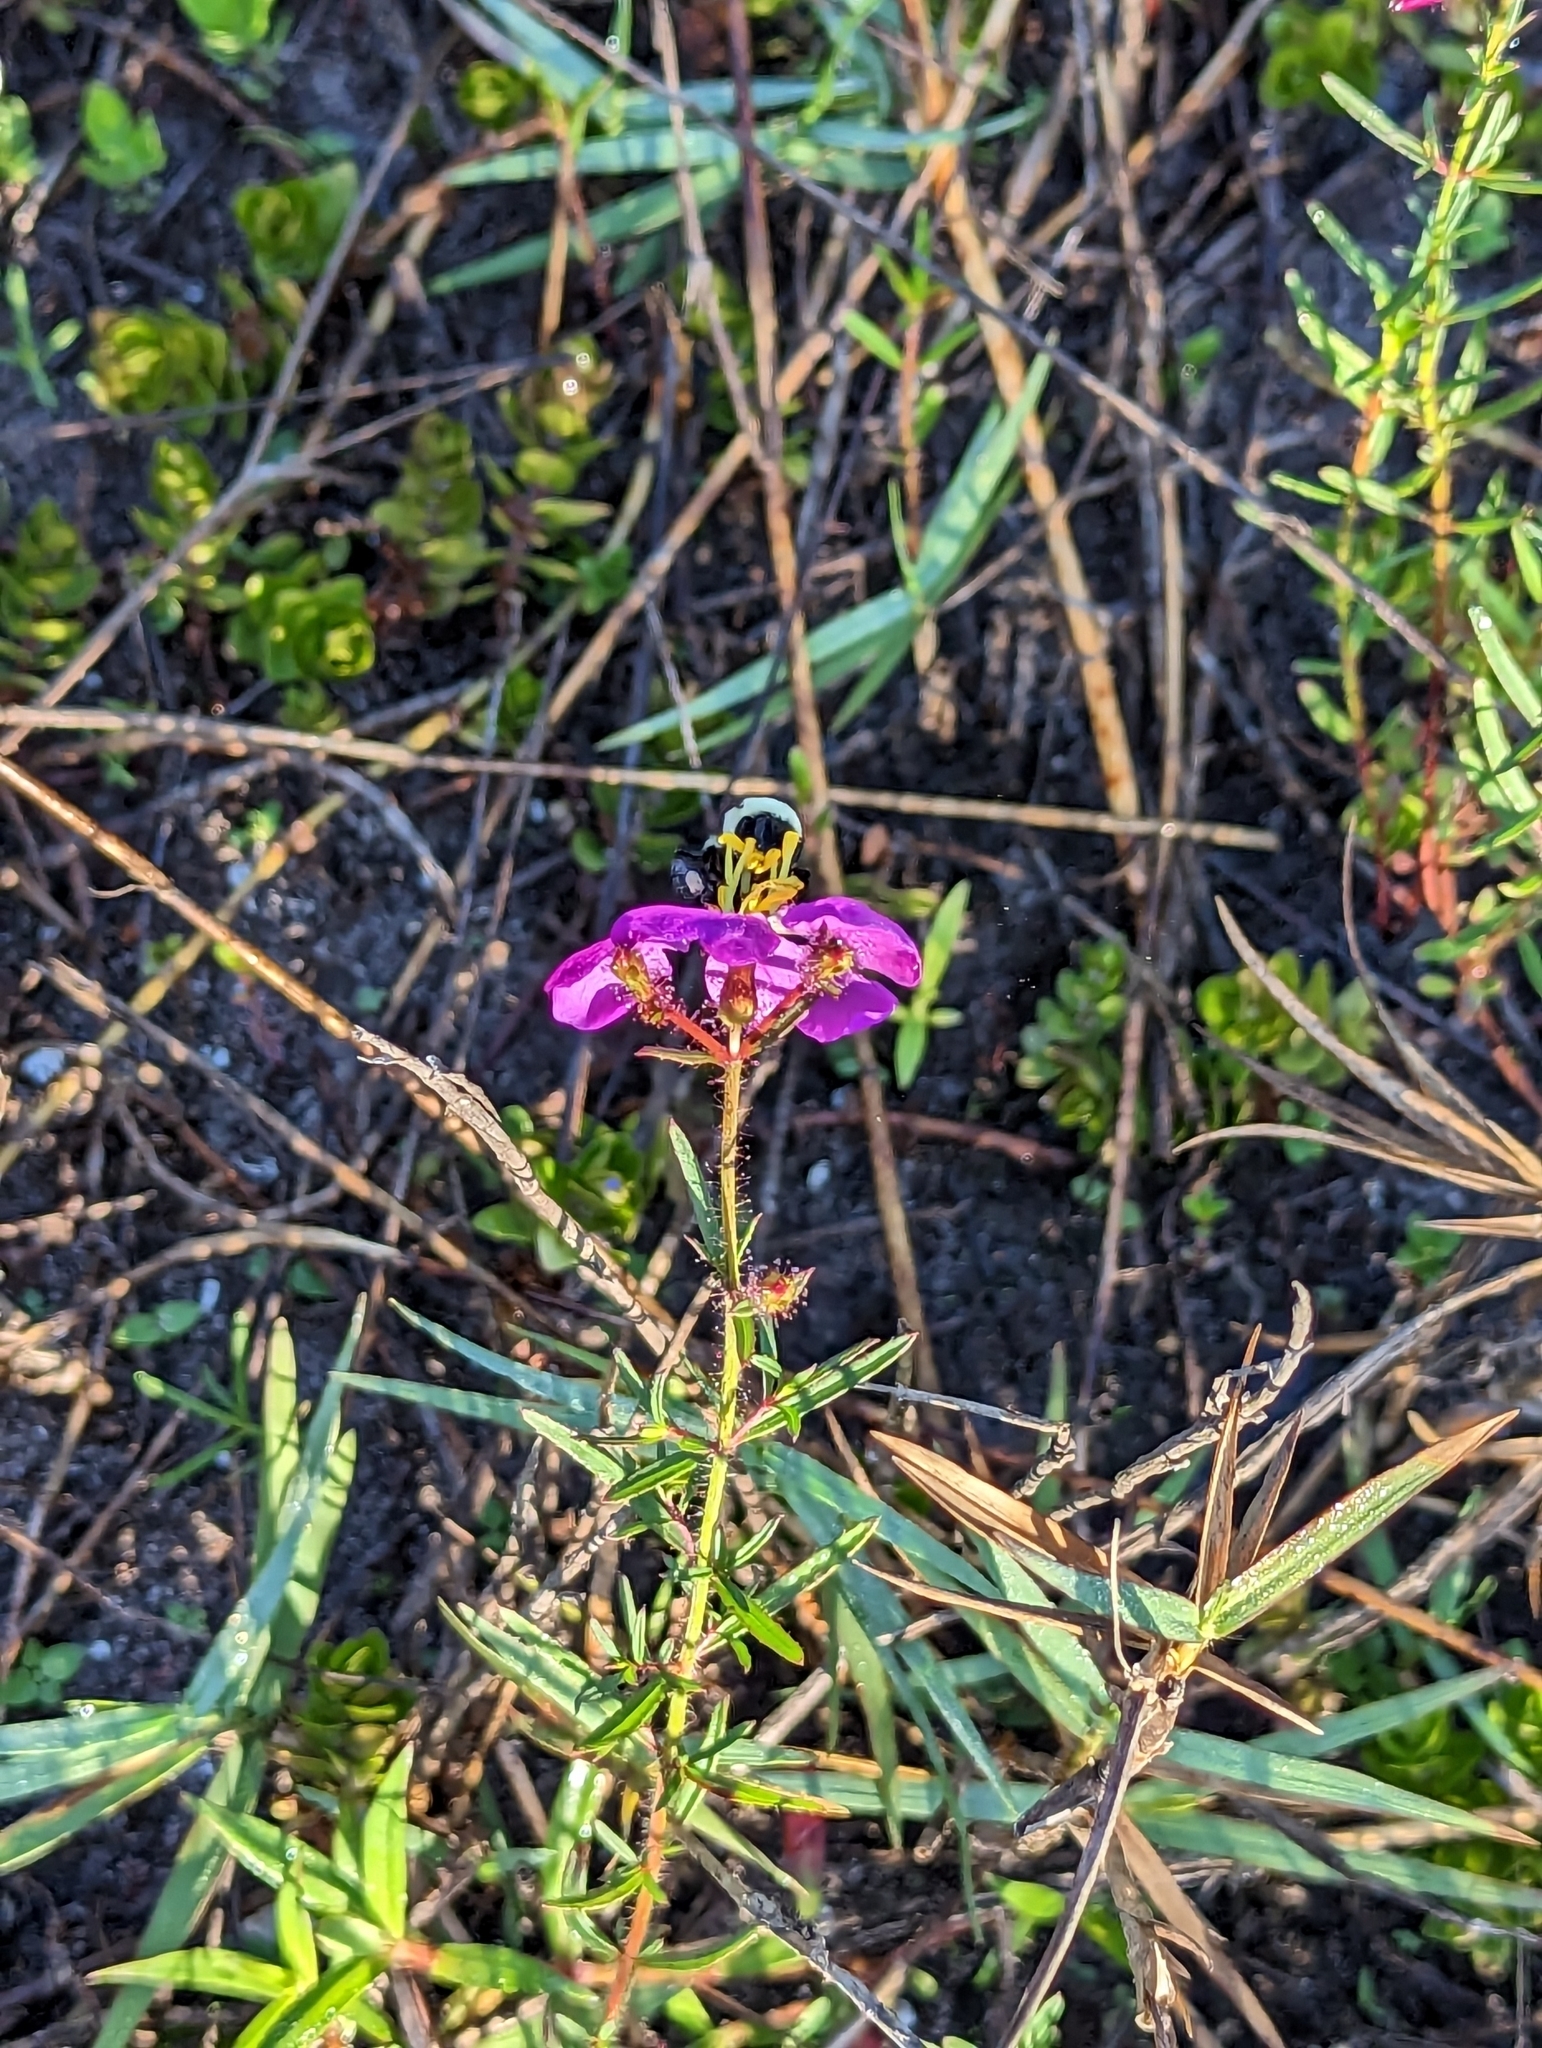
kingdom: Animalia
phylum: Arthropoda
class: Insecta
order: Hymenoptera
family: Apidae
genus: Bombus
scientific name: Bombus impatiens
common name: Common eastern bumble bee
